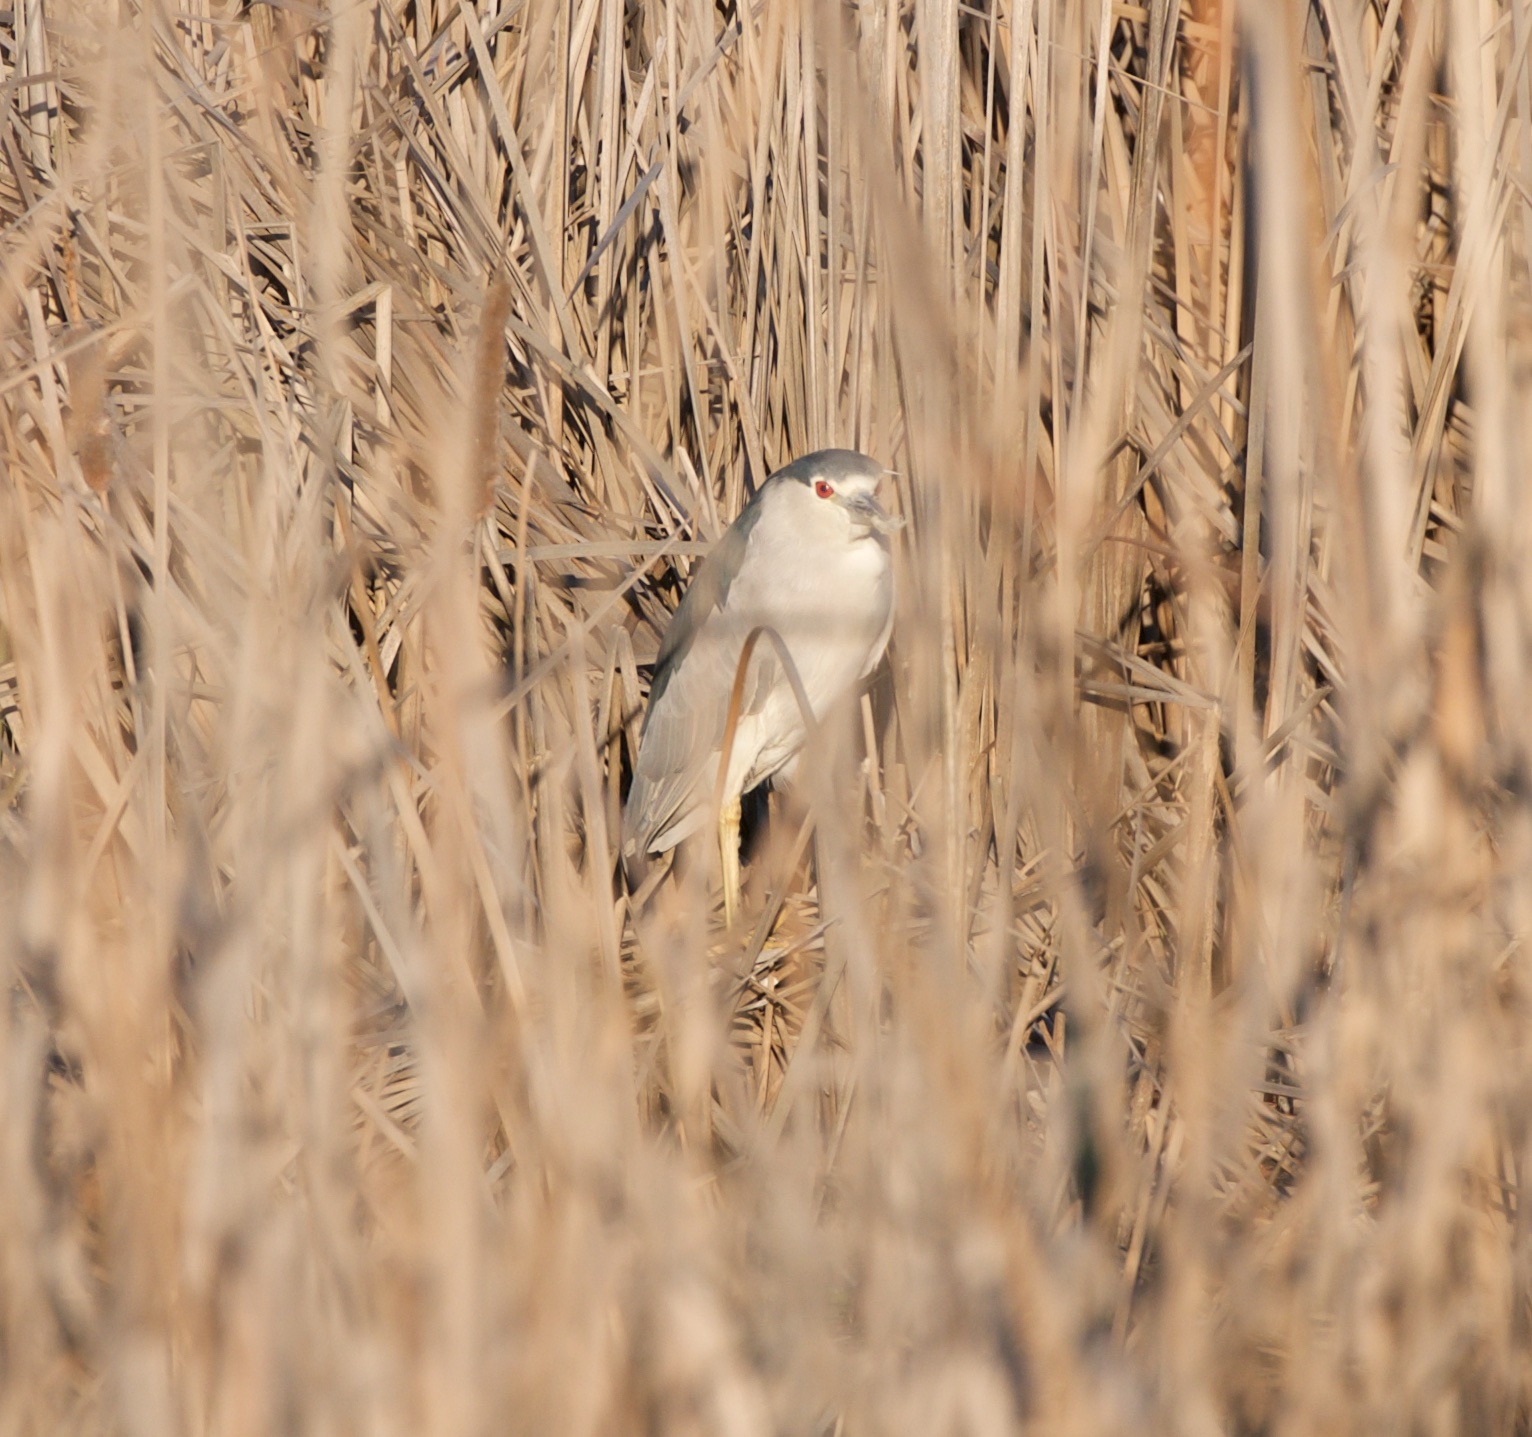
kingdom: Animalia
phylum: Chordata
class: Aves
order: Pelecaniformes
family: Ardeidae
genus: Nycticorax
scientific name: Nycticorax nycticorax
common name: Black-crowned night heron
